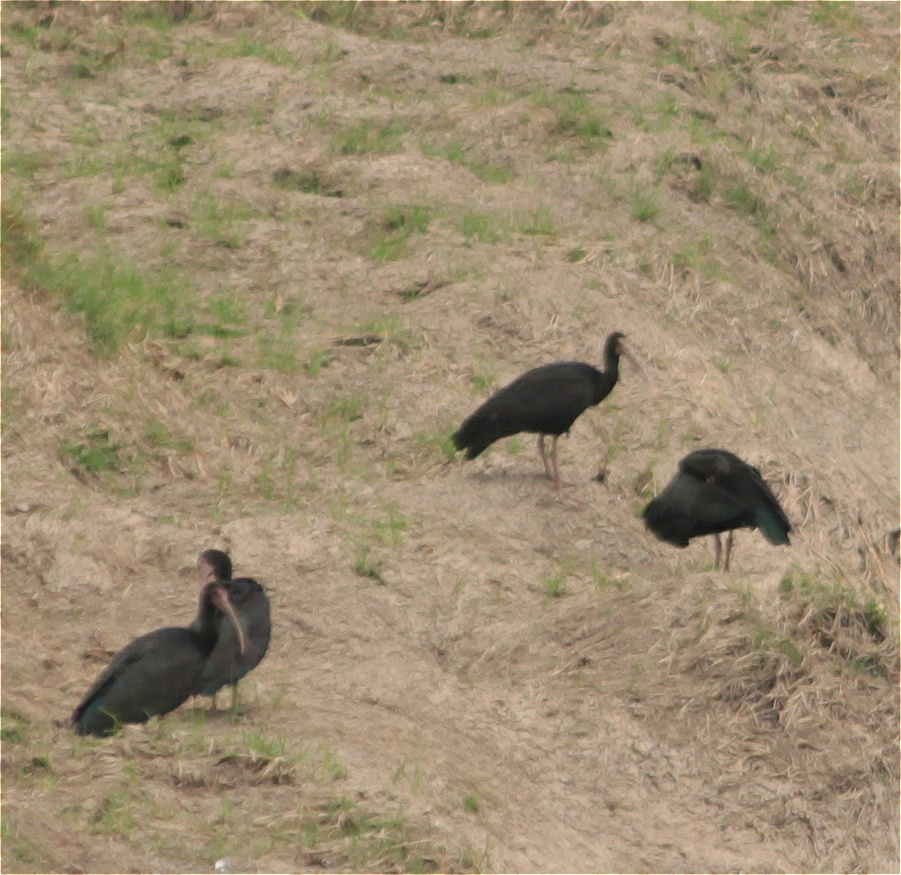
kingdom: Animalia
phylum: Chordata
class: Aves
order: Pelecaniformes
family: Threskiornithidae
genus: Phimosus
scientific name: Phimosus infuscatus
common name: Bare-faced ibis
